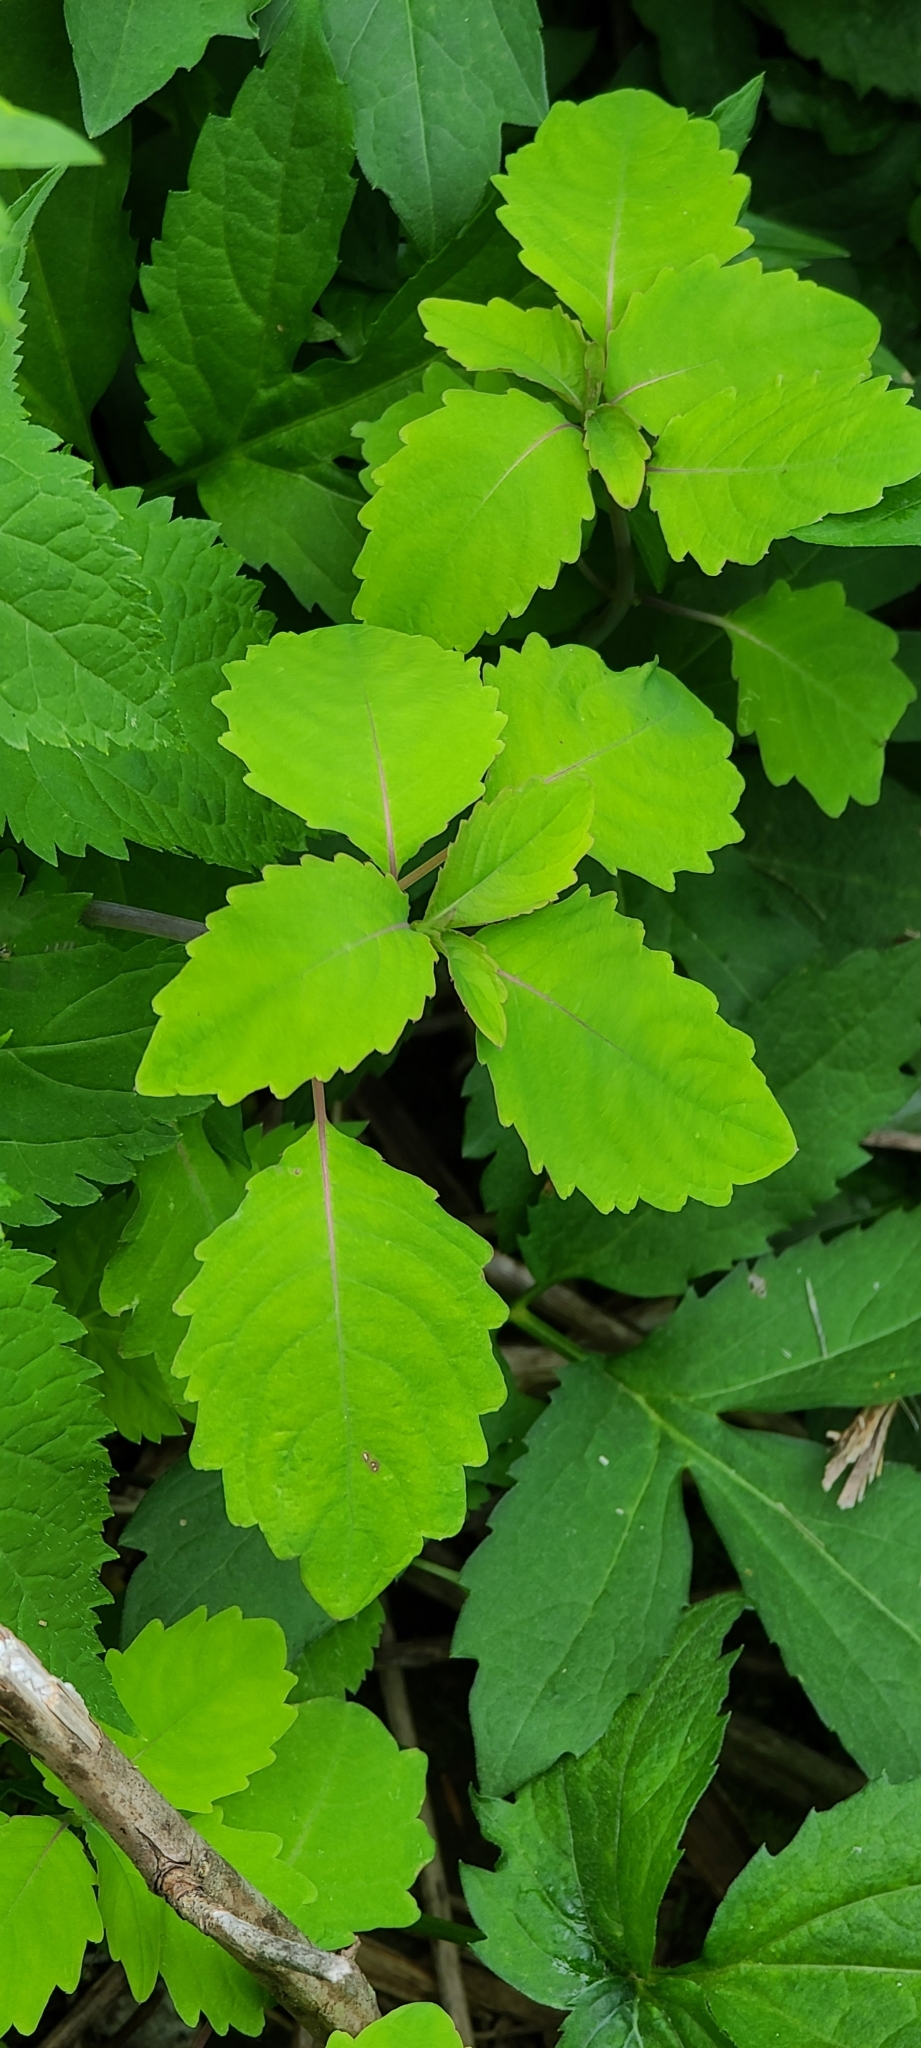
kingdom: Plantae
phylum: Tracheophyta
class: Magnoliopsida
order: Ericales
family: Balsaminaceae
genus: Impatiens
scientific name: Impatiens pallida
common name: Pale snapweed
